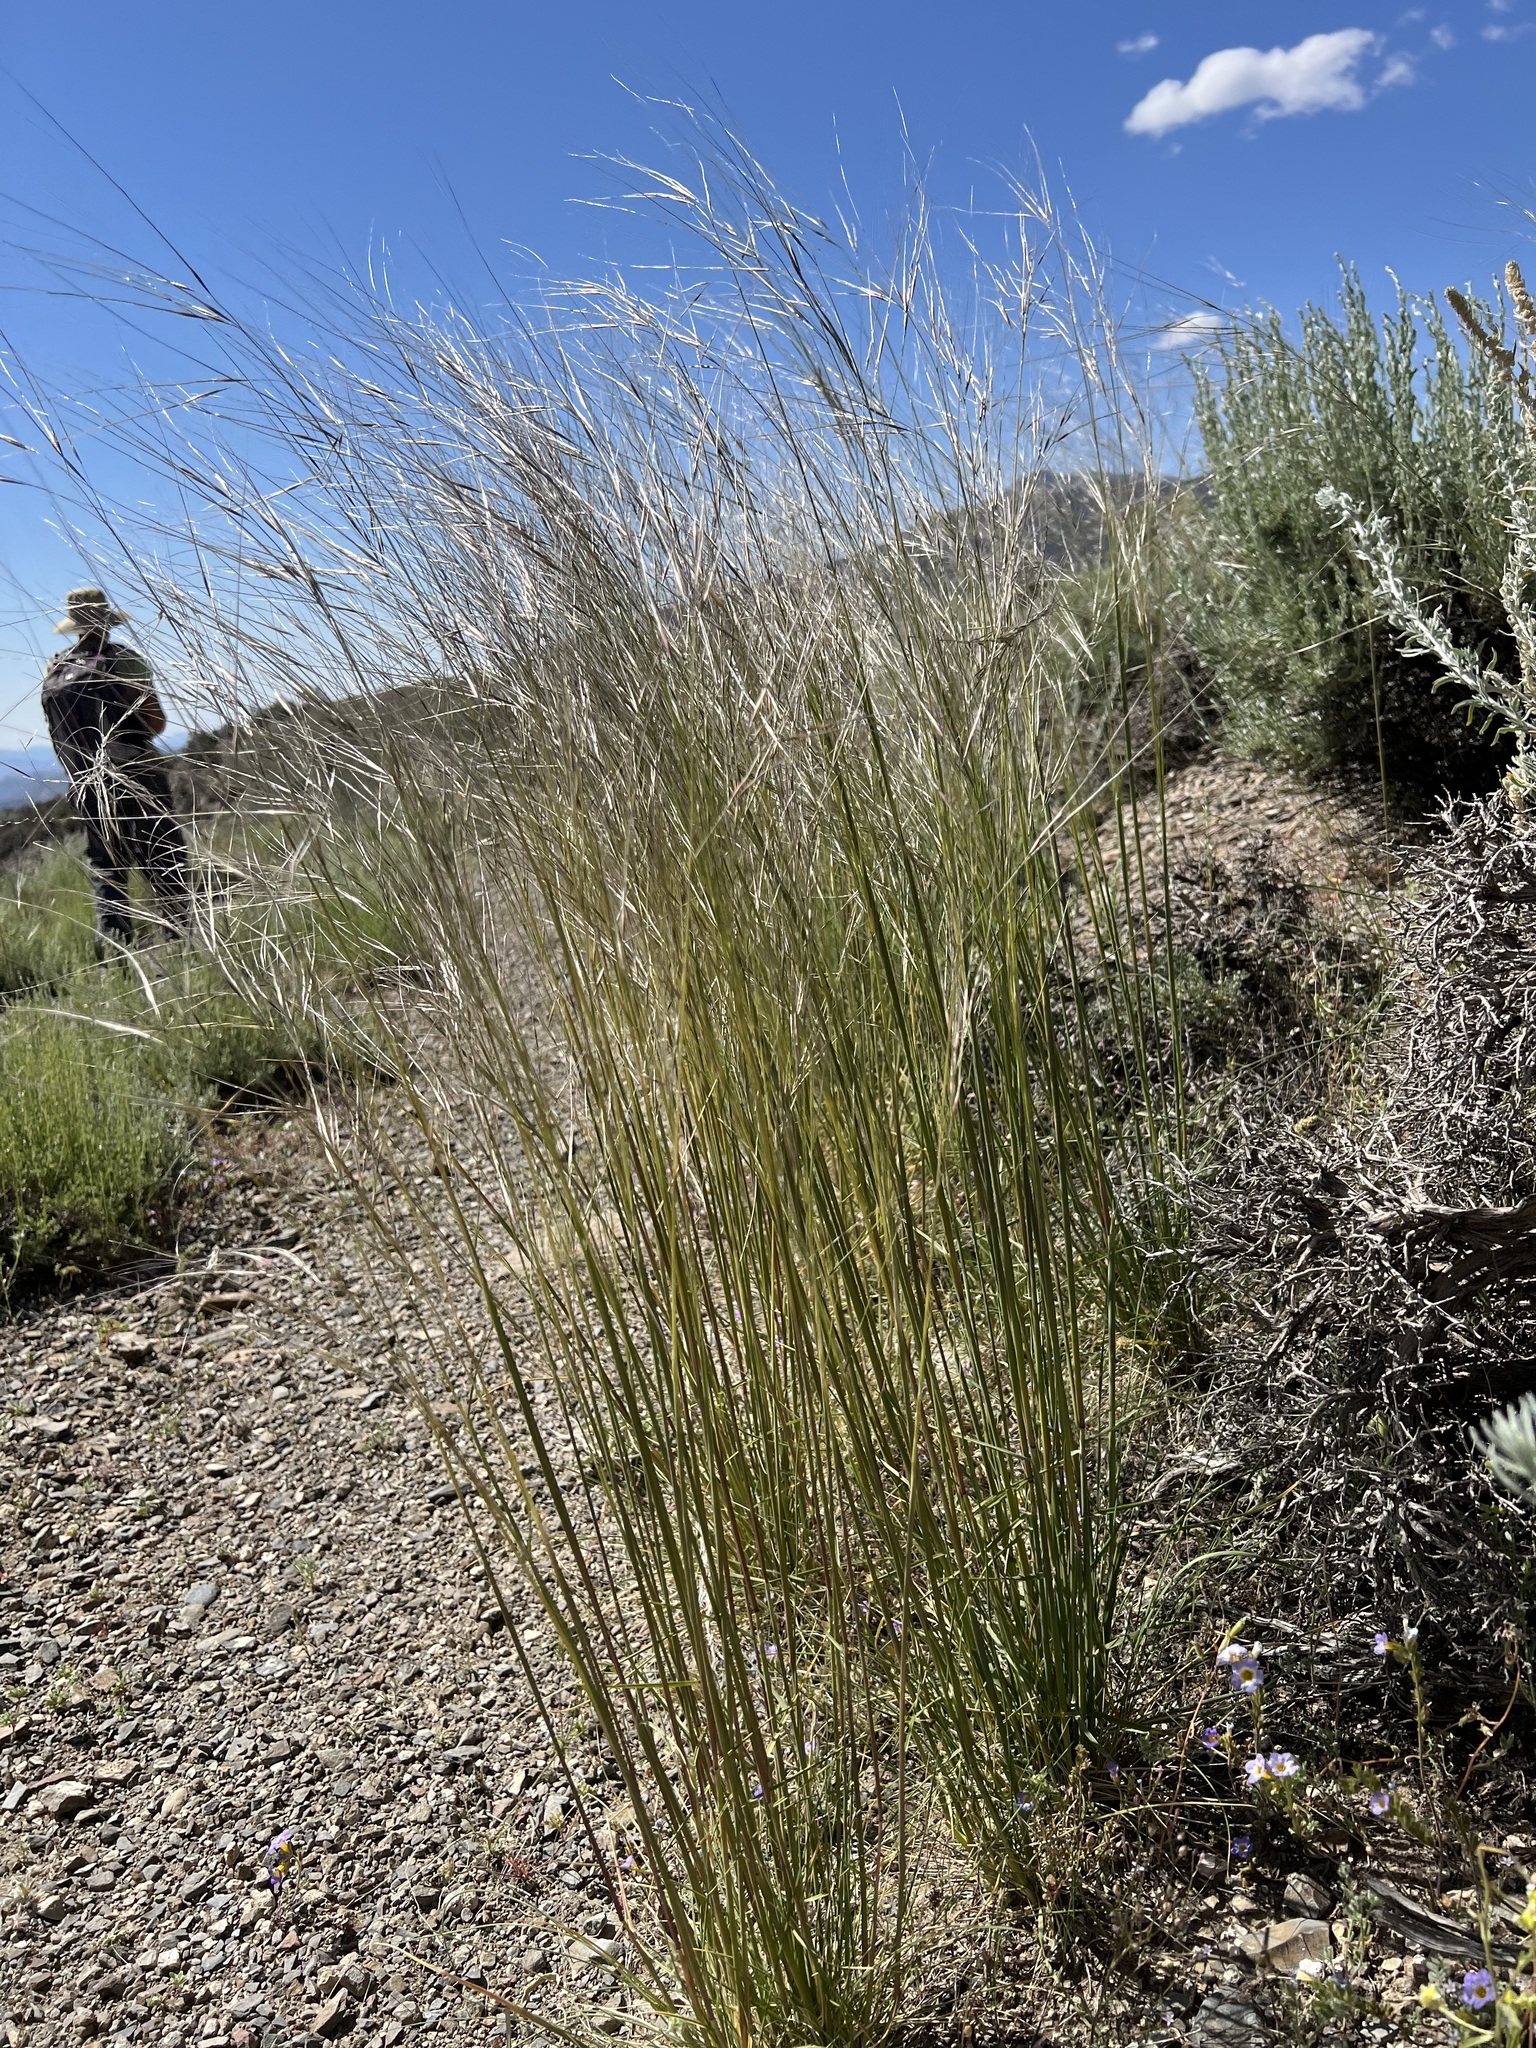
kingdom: Plantae
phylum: Tracheophyta
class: Liliopsida
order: Poales
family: Poaceae
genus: Hesperostipa
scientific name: Hesperostipa comata
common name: Needle-and-thread grass
